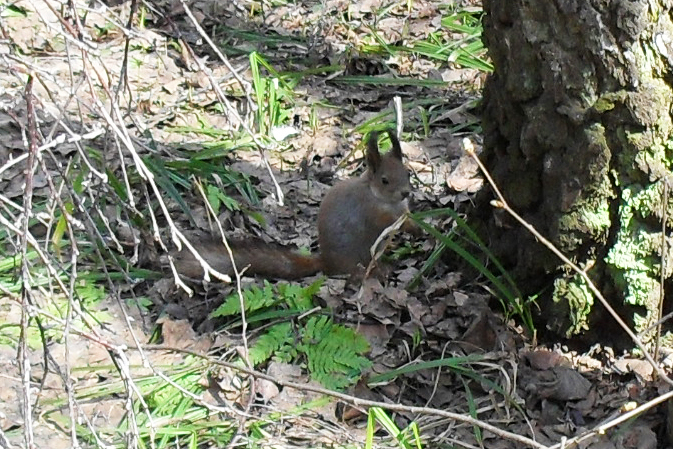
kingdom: Animalia
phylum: Chordata
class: Mammalia
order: Rodentia
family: Sciuridae
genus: Sciurus
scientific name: Sciurus vulgaris
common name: Eurasian red squirrel
